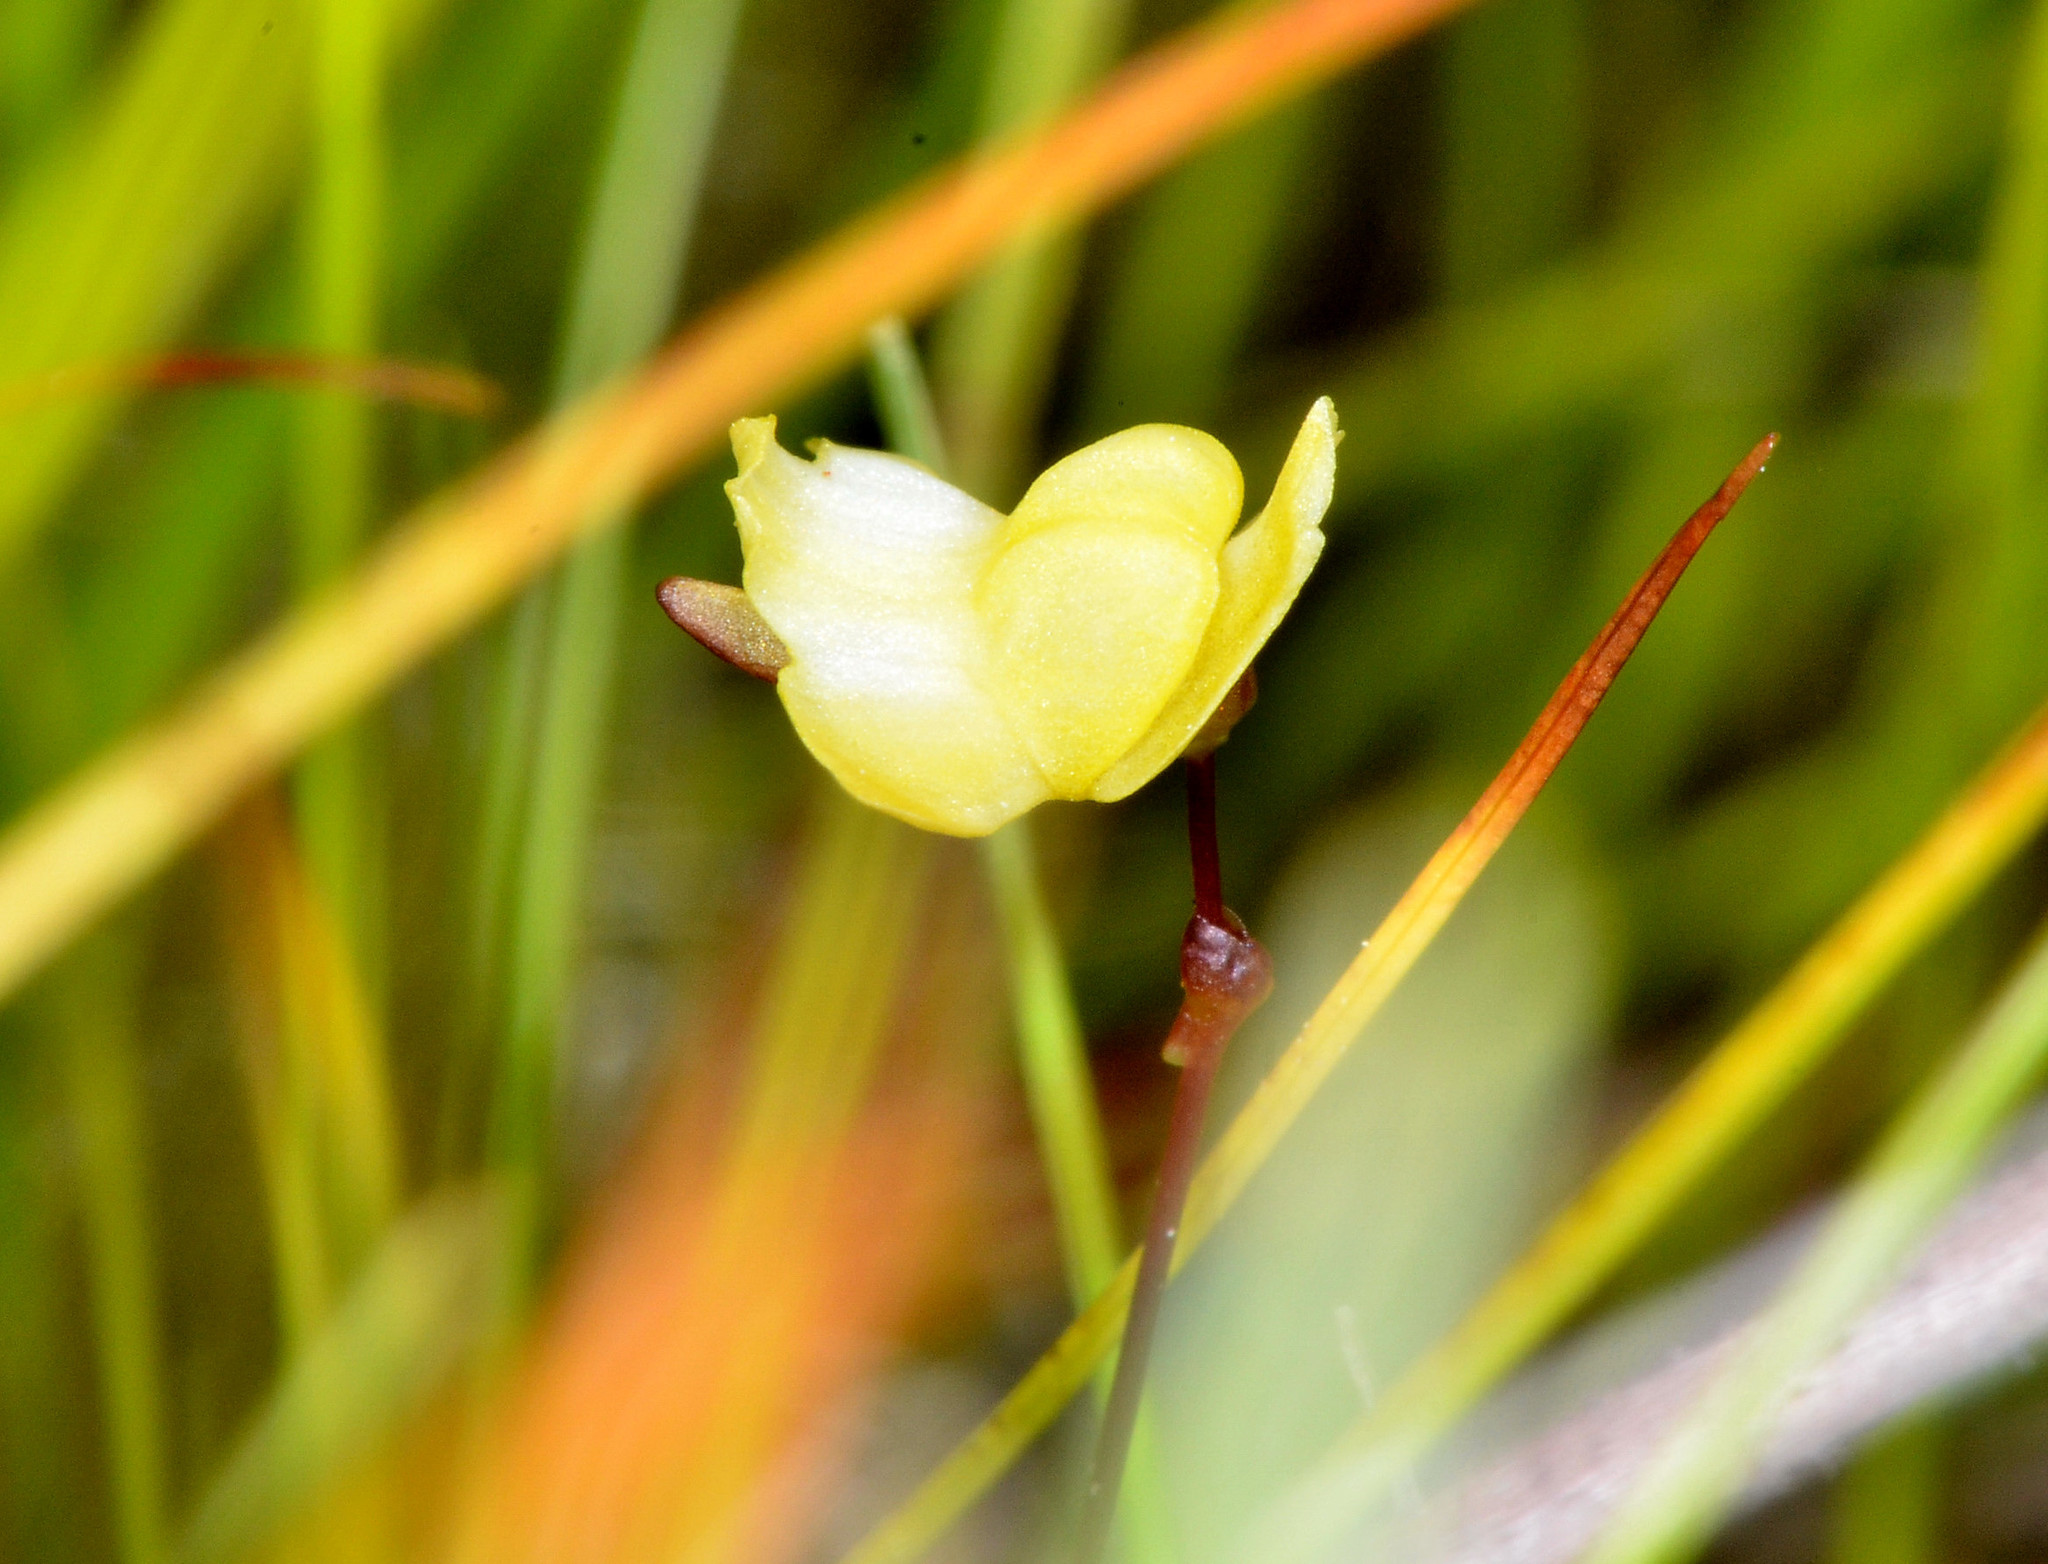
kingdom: Plantae
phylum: Tracheophyta
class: Magnoliopsida
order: Lamiales
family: Lentibulariaceae
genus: Utricularia
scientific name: Utricularia subulata
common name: Tiny bladderwort
